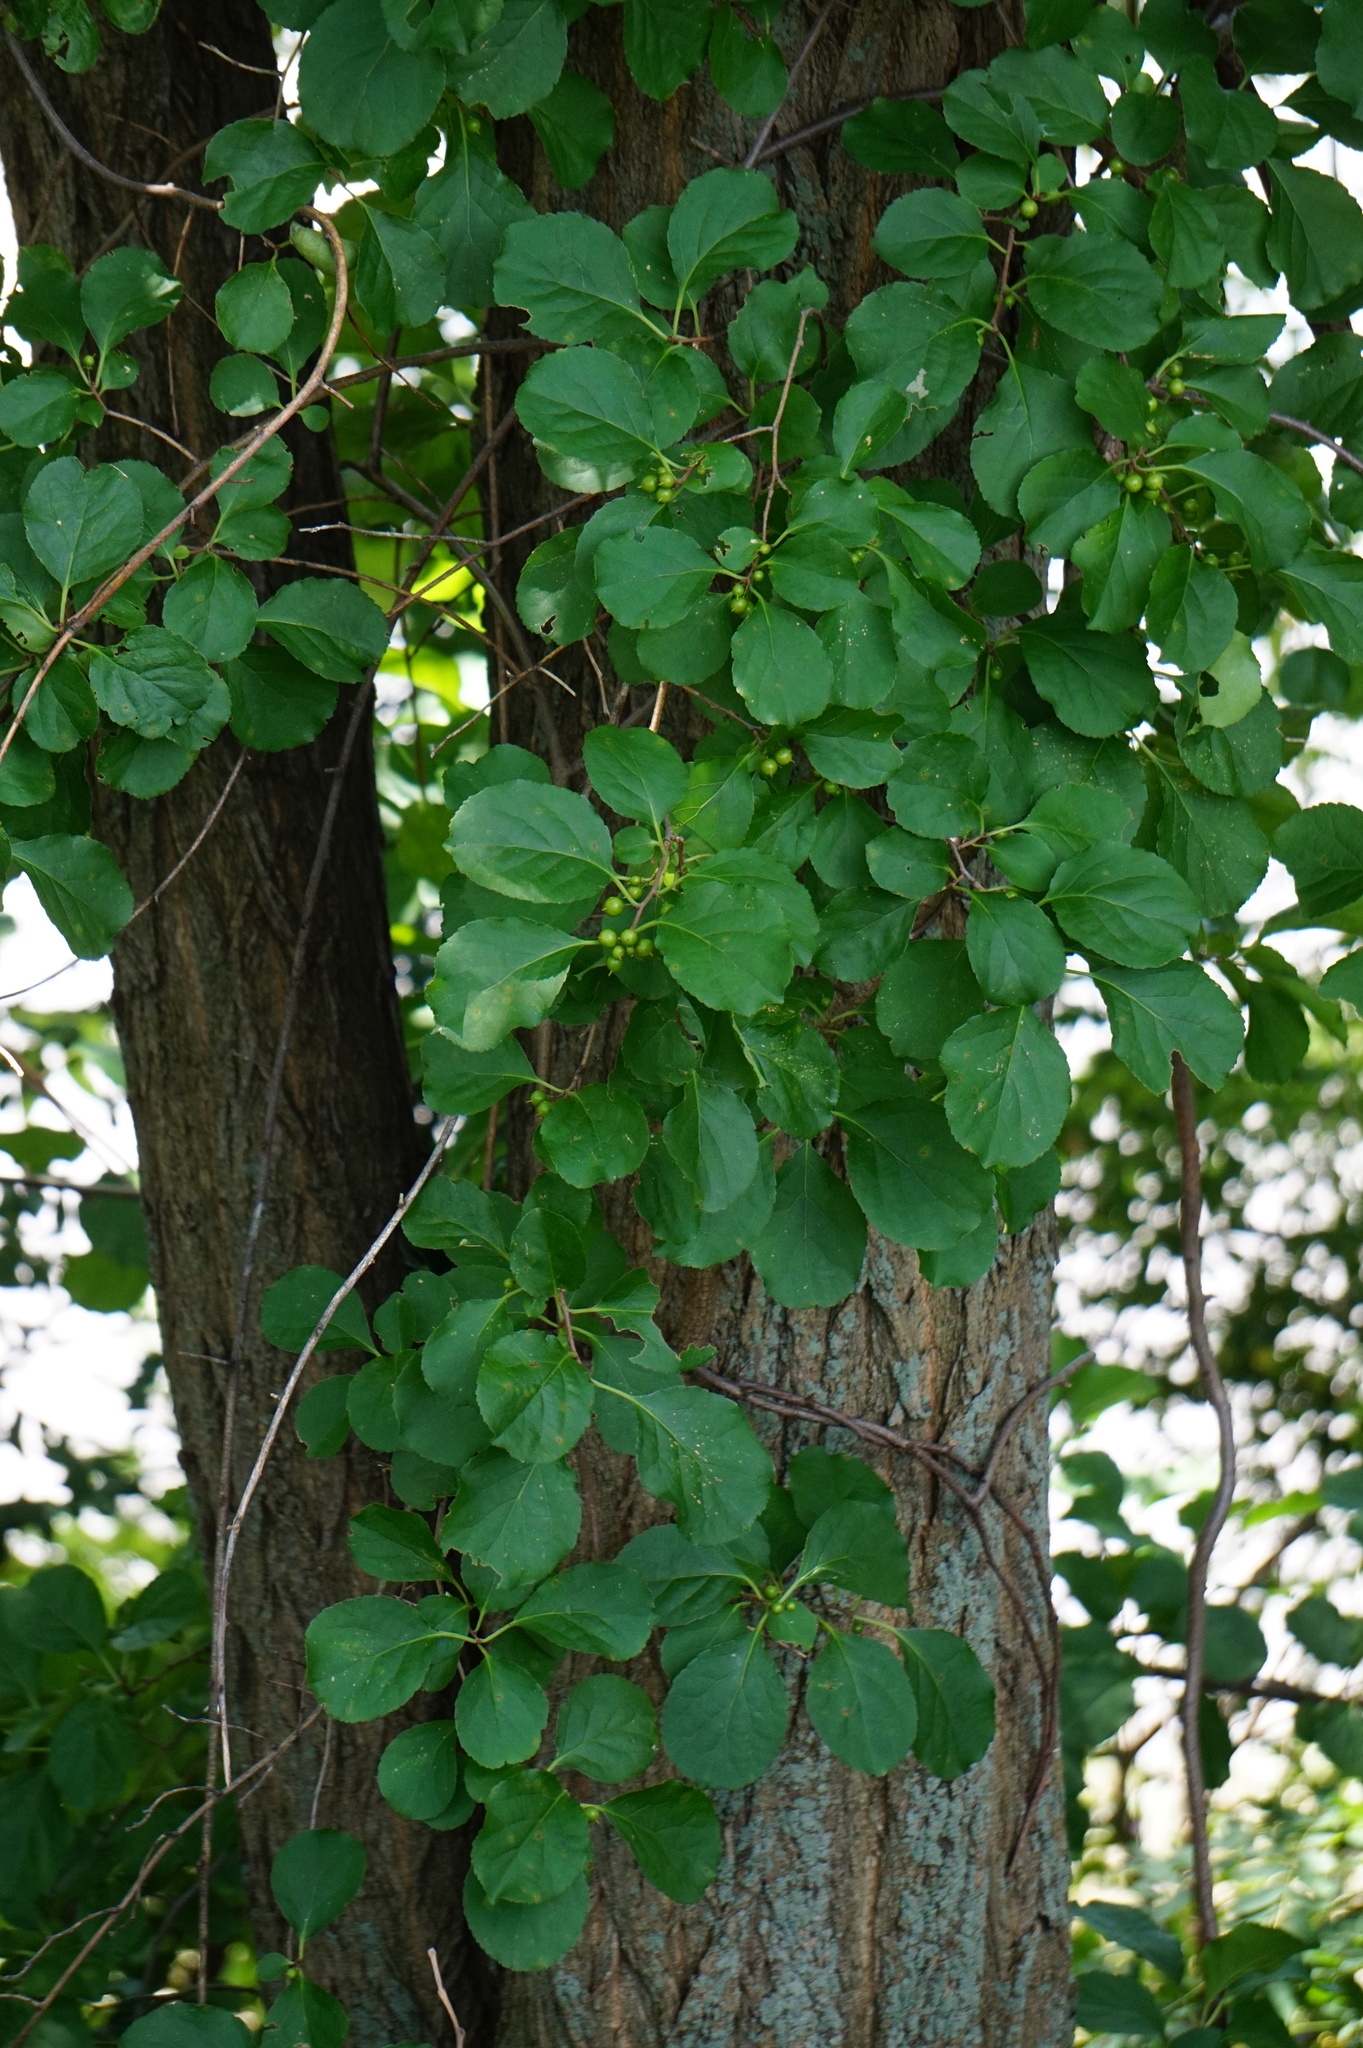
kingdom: Plantae
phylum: Tracheophyta
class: Magnoliopsida
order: Celastrales
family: Celastraceae
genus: Celastrus
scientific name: Celastrus orbiculatus
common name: Oriental bittersweet
